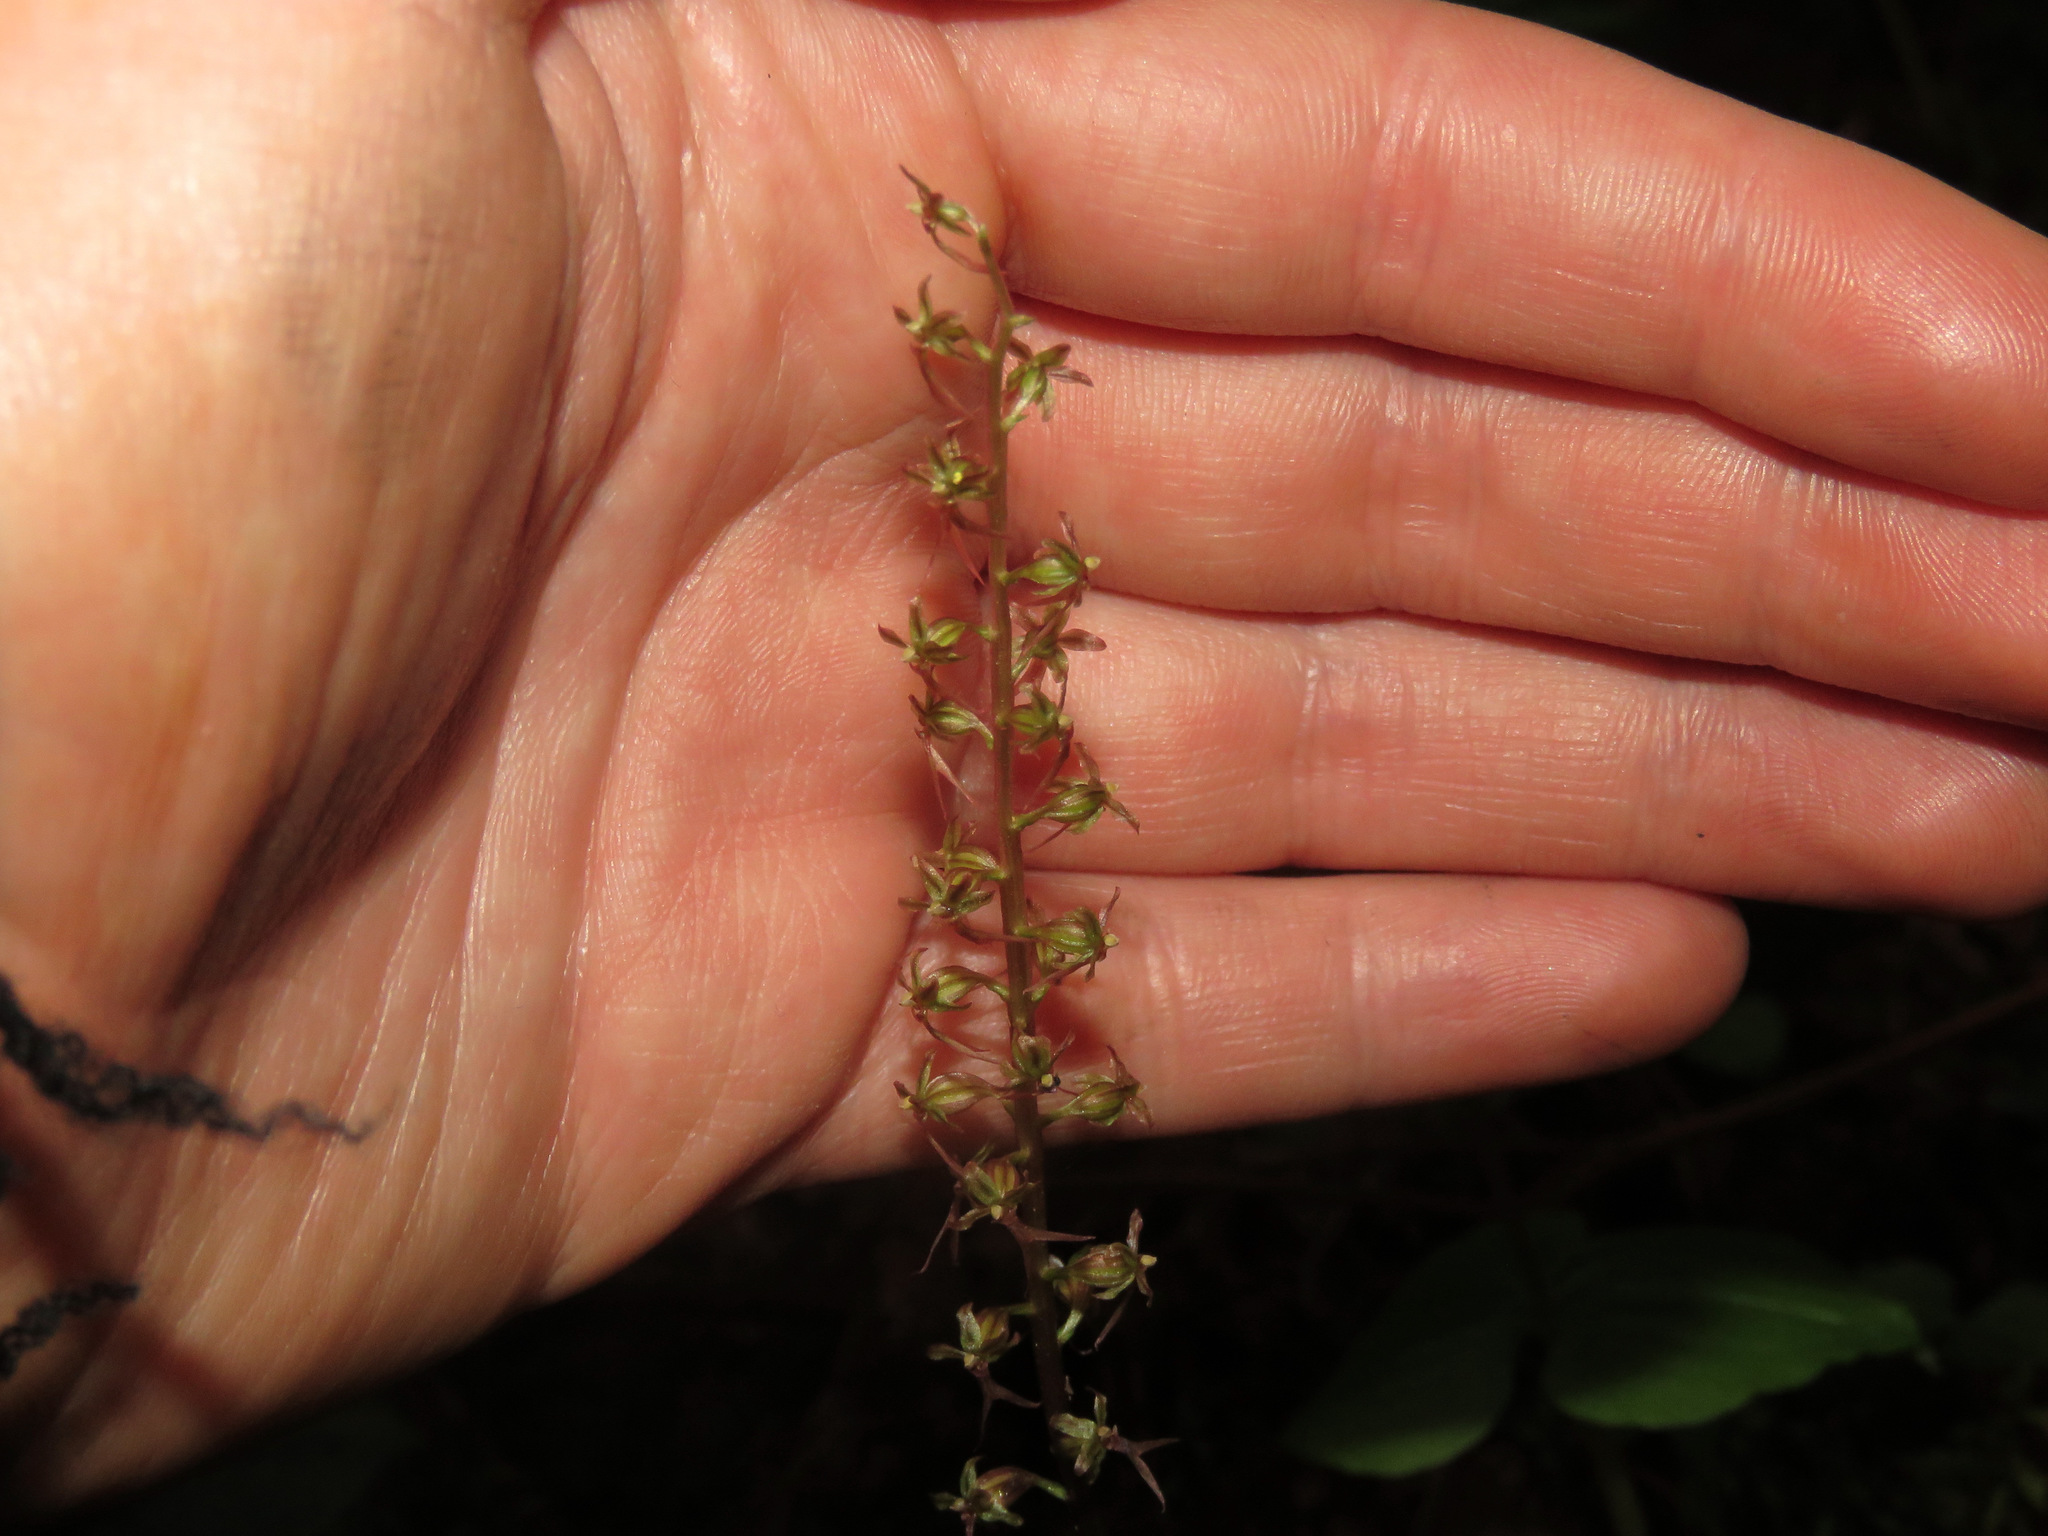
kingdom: Plantae
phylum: Tracheophyta
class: Liliopsida
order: Asparagales
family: Orchidaceae
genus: Neottia
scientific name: Neottia cordata
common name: Lesser twayblade
